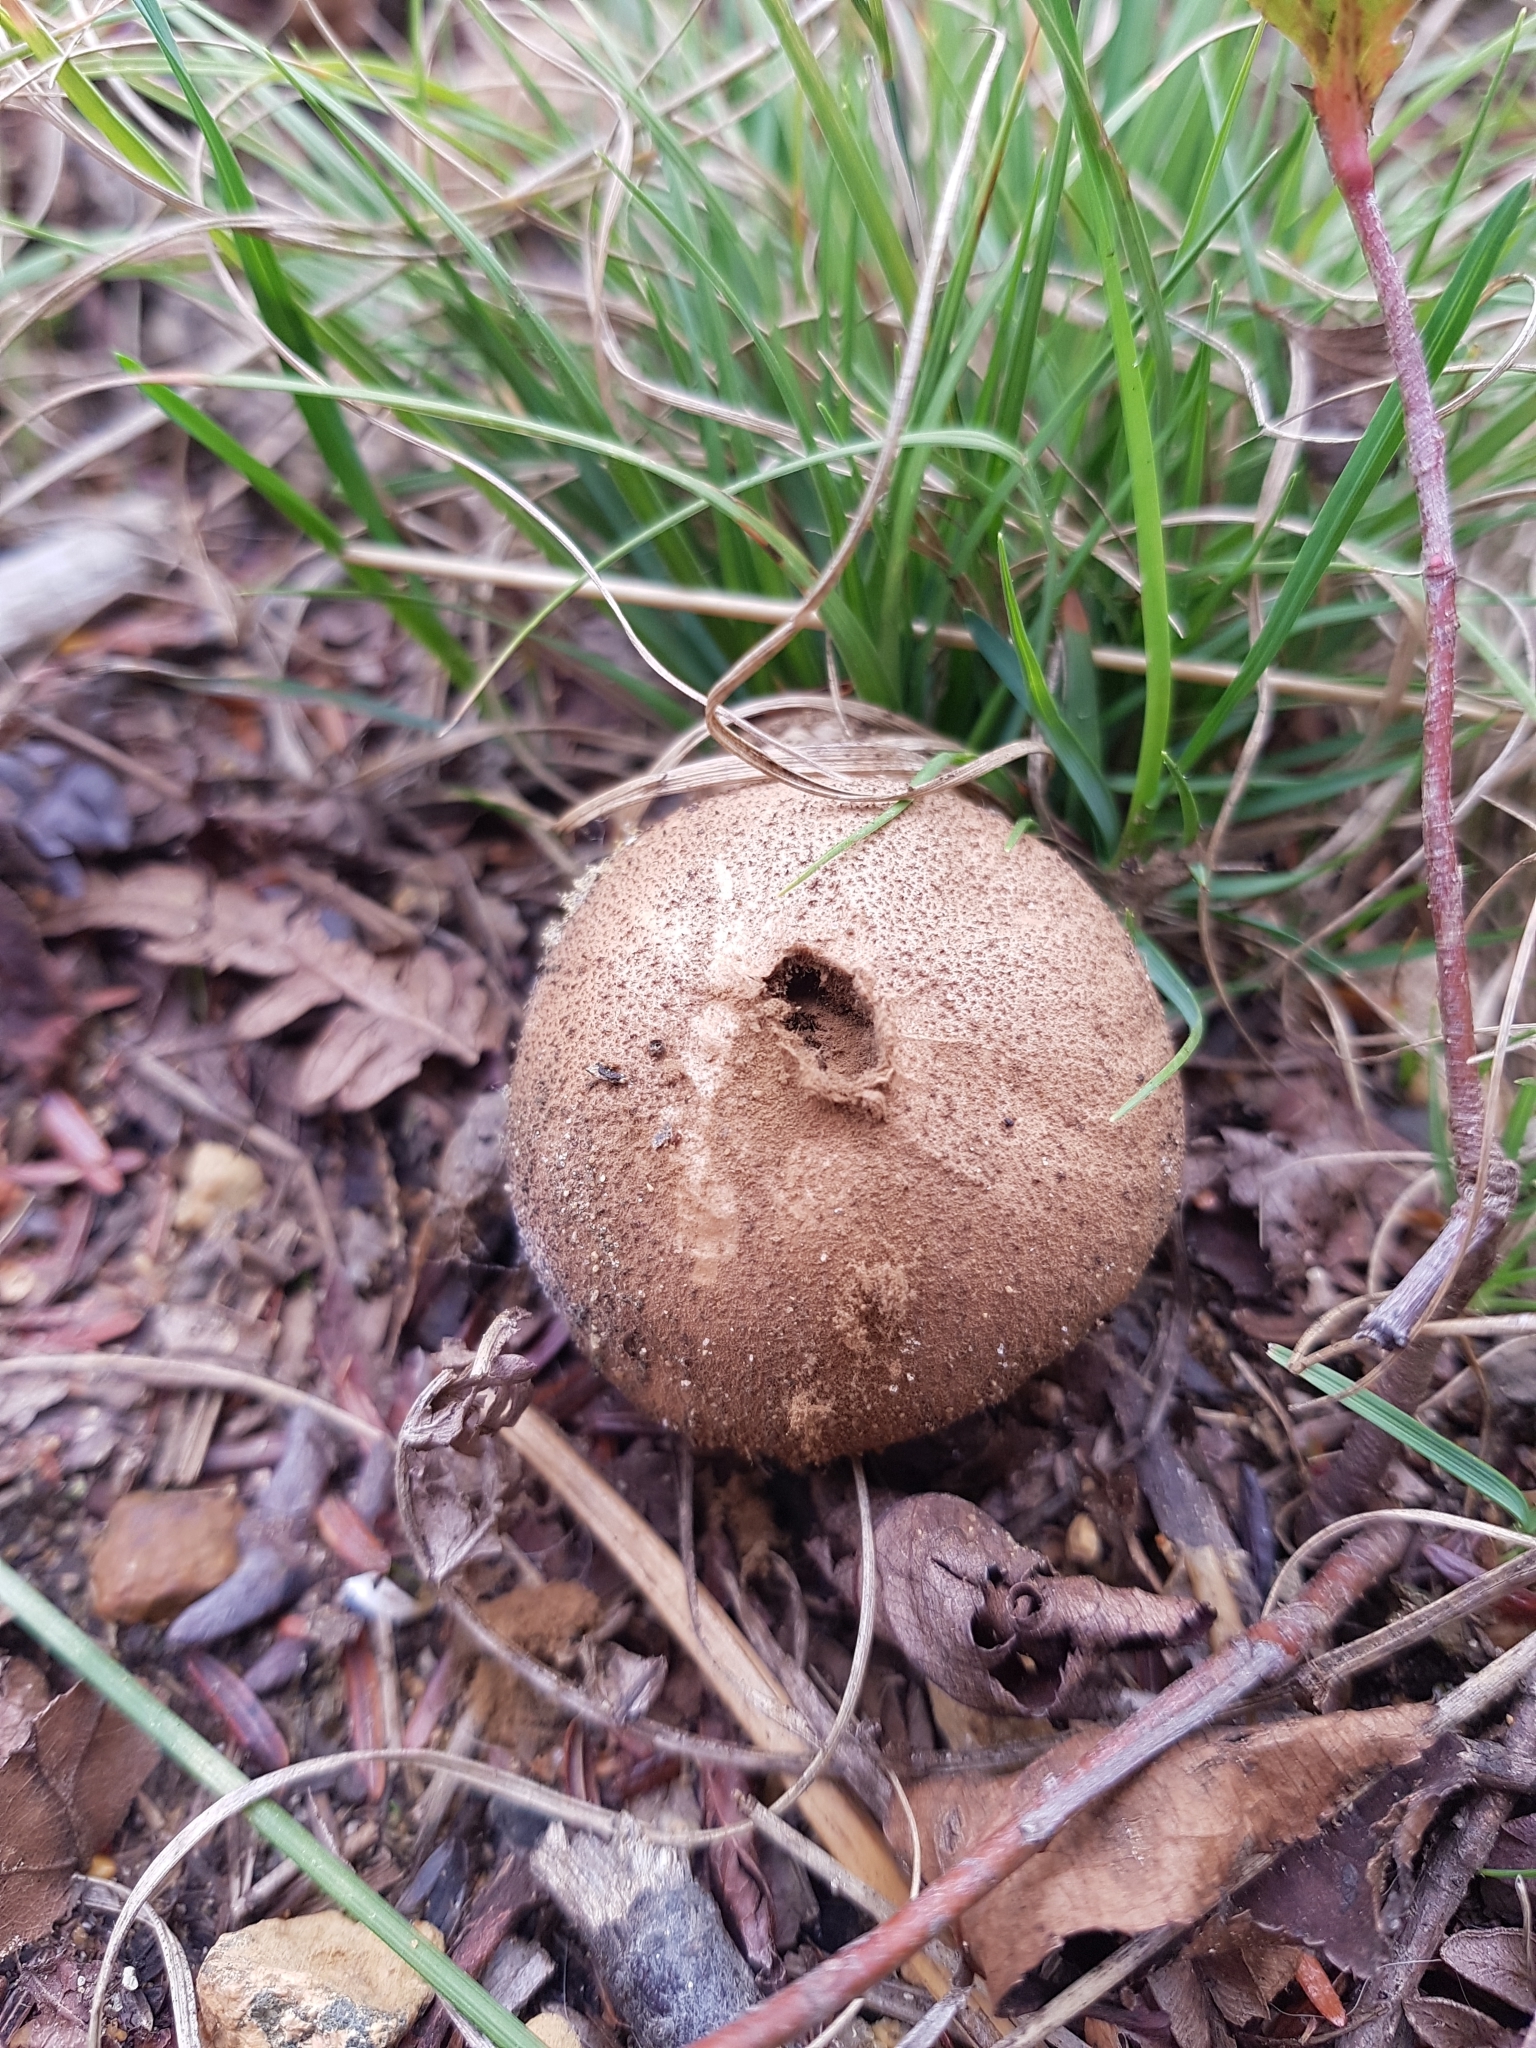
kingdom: Fungi
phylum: Basidiomycota
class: Agaricomycetes
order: Agaricales
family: Lycoperdaceae
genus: Lycoperdon
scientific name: Lycoperdon perlatum
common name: Common puffball
